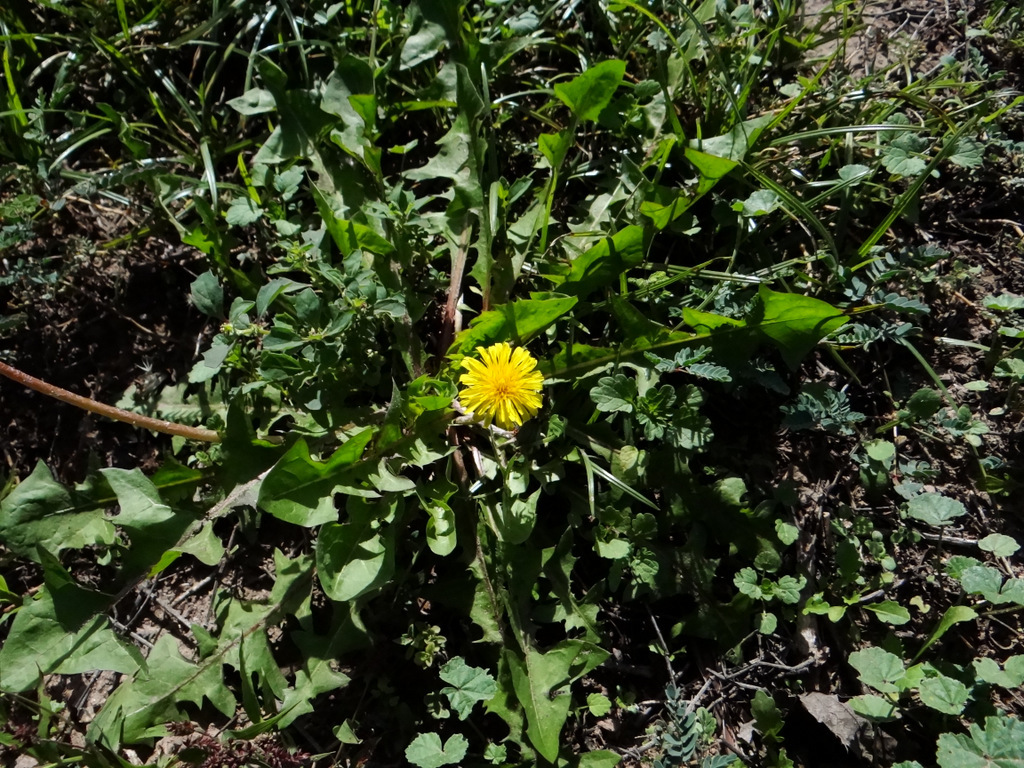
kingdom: Plantae
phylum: Tracheophyta
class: Magnoliopsida
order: Asterales
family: Asteraceae
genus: Taraxacum
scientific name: Taraxacum officinale
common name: Common dandelion
